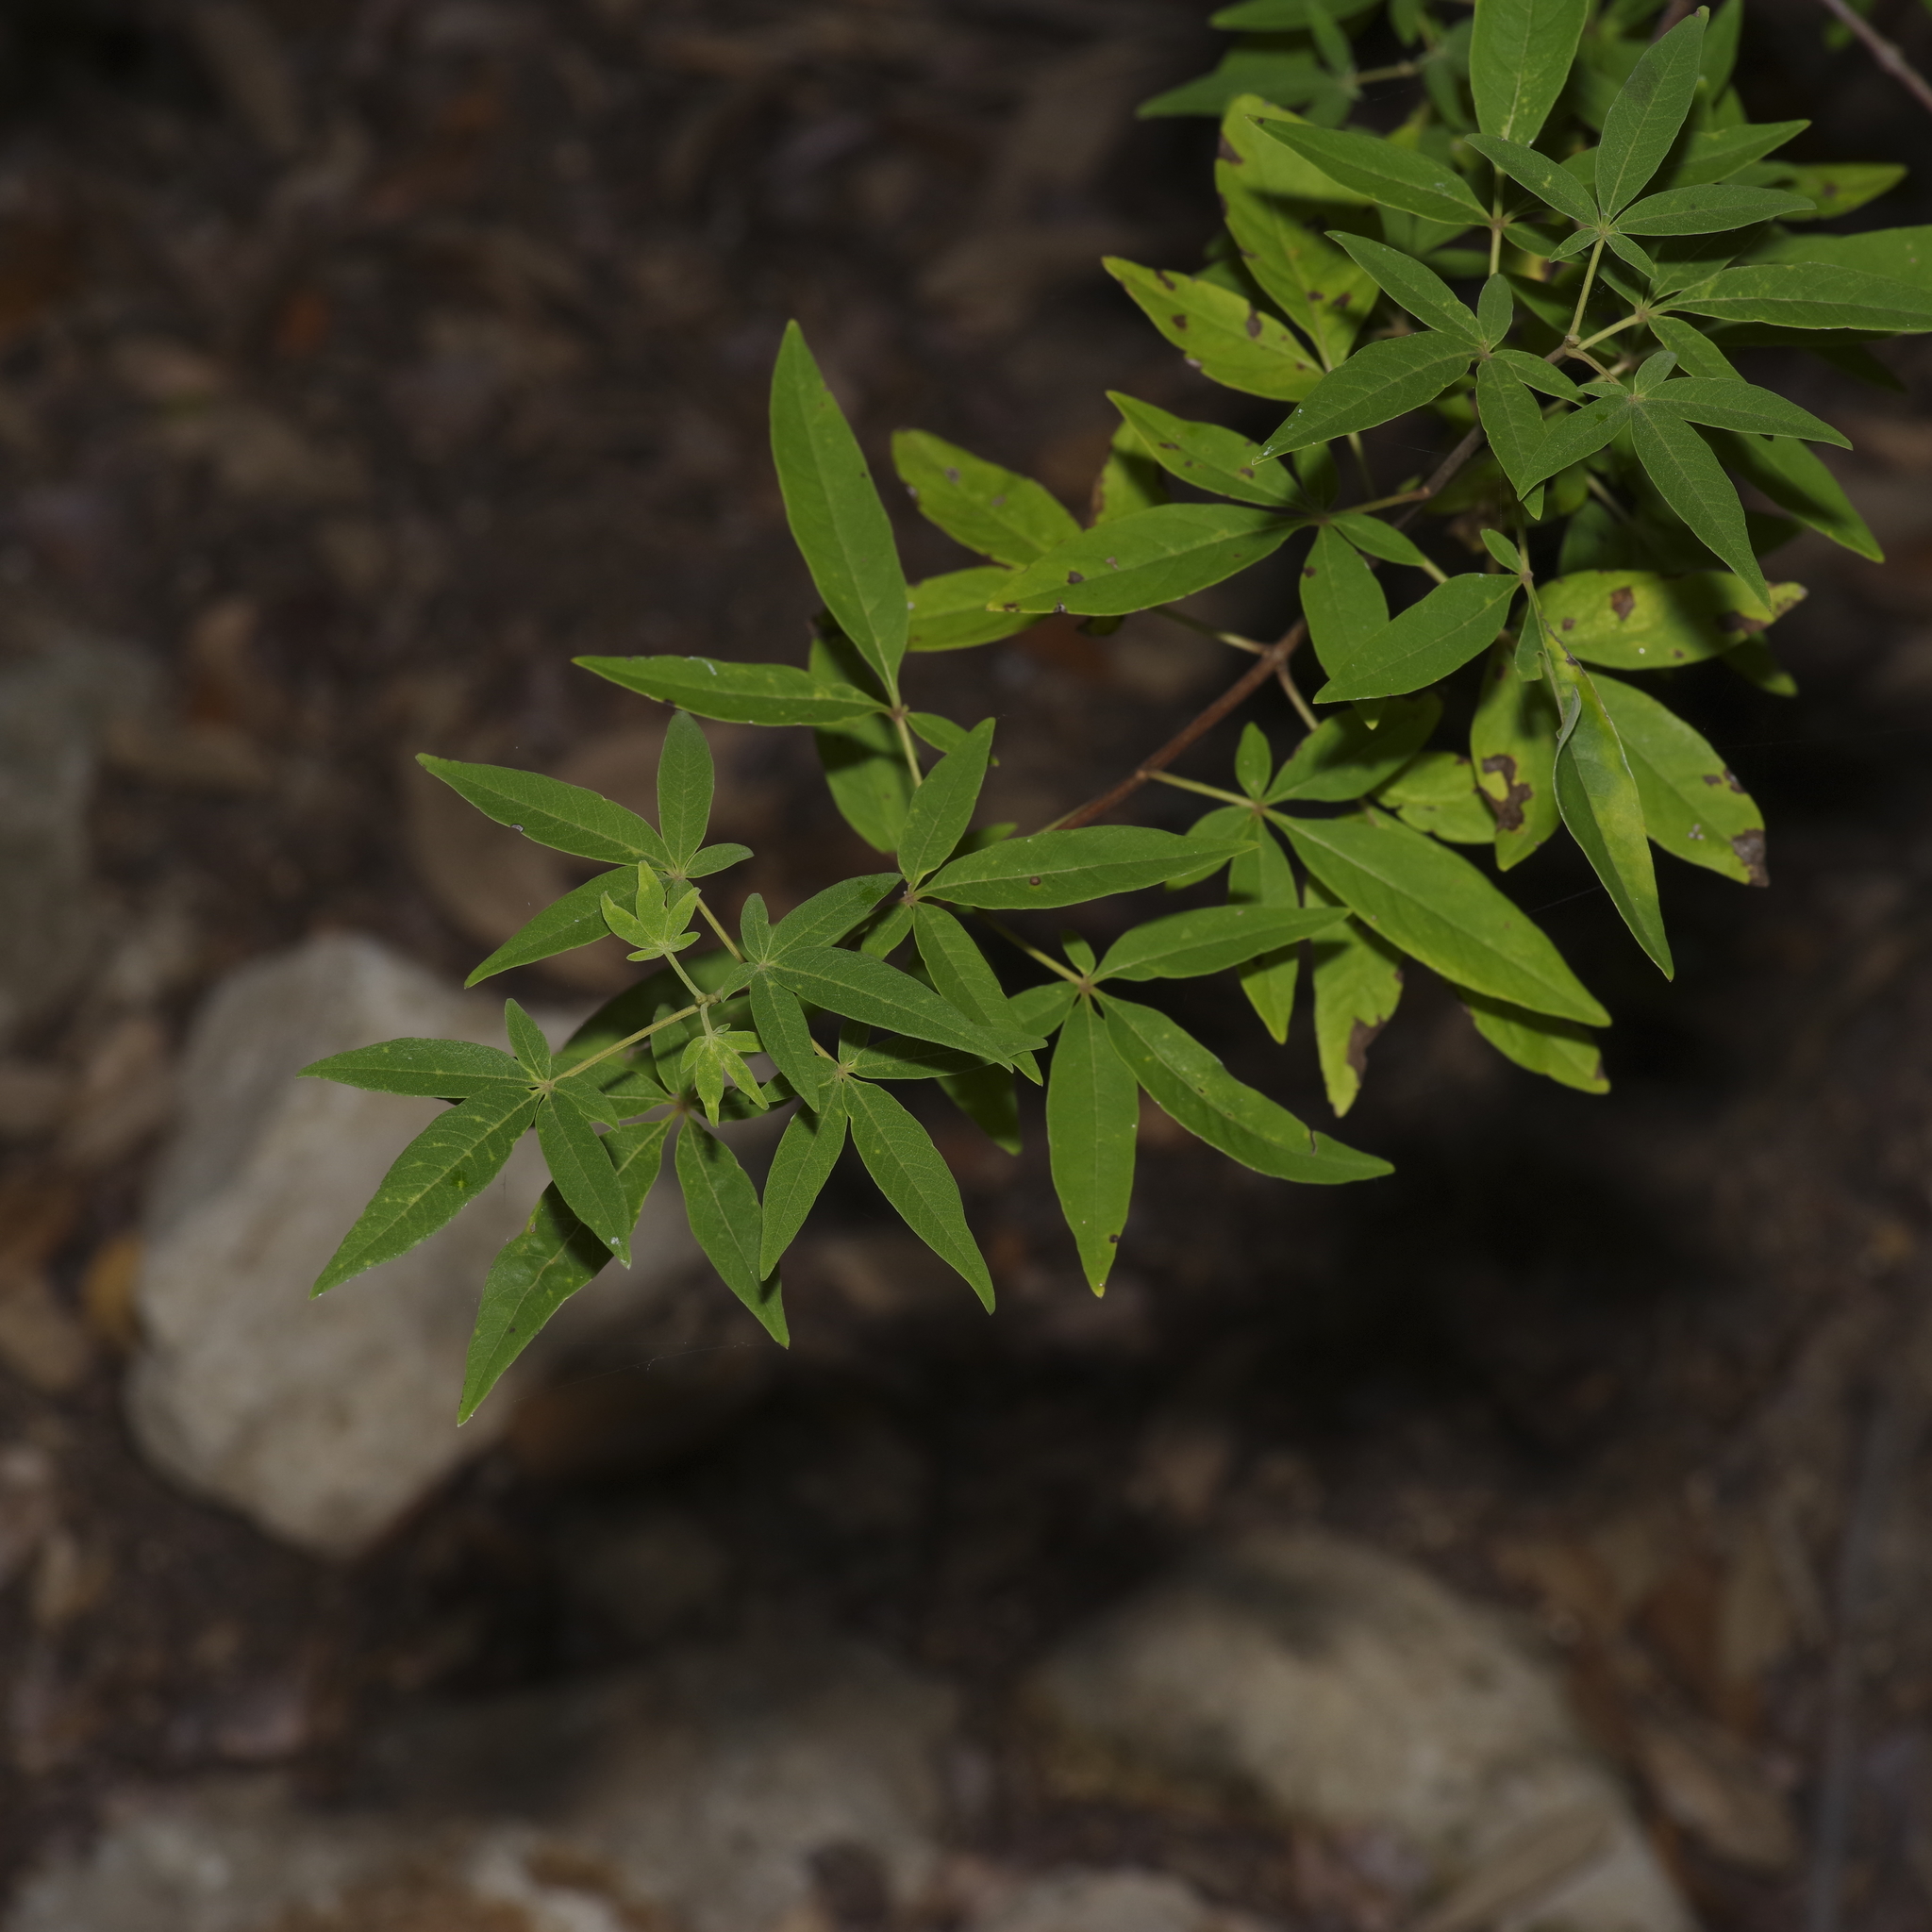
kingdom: Plantae
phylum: Tracheophyta
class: Magnoliopsida
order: Lamiales
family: Lamiaceae
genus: Vitex
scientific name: Vitex agnus-castus
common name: Chasteberry
